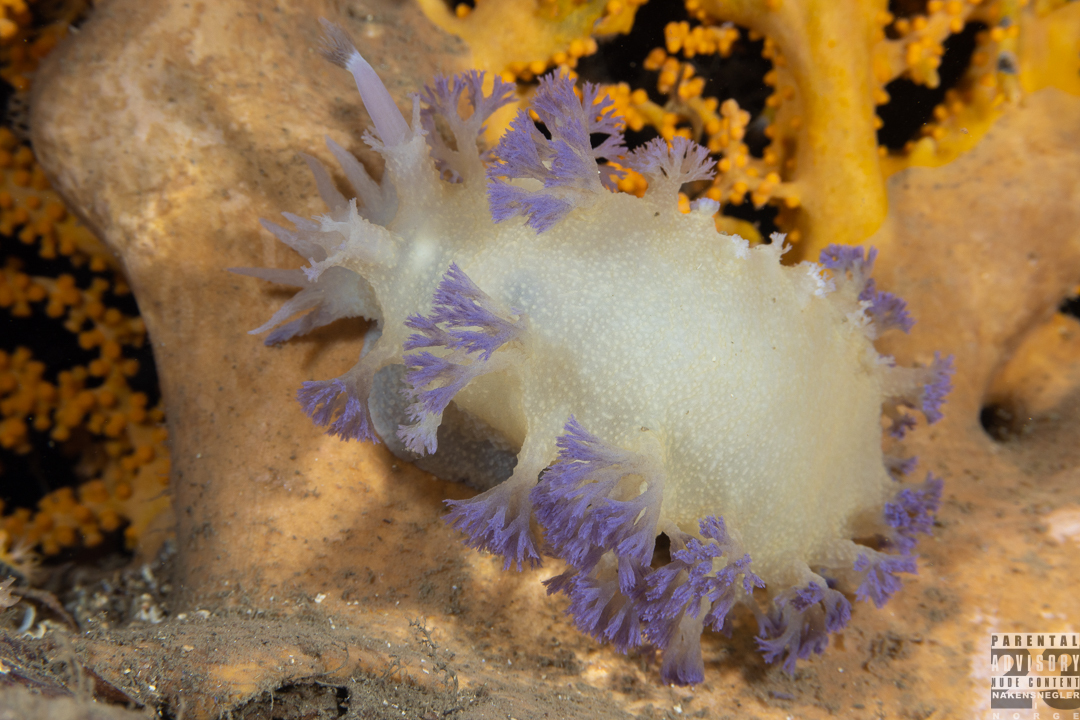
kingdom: Animalia
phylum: Mollusca
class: Gastropoda
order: Nudibranchia
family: Tritoniidae
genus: Tritonia
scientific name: Tritonia griegi
